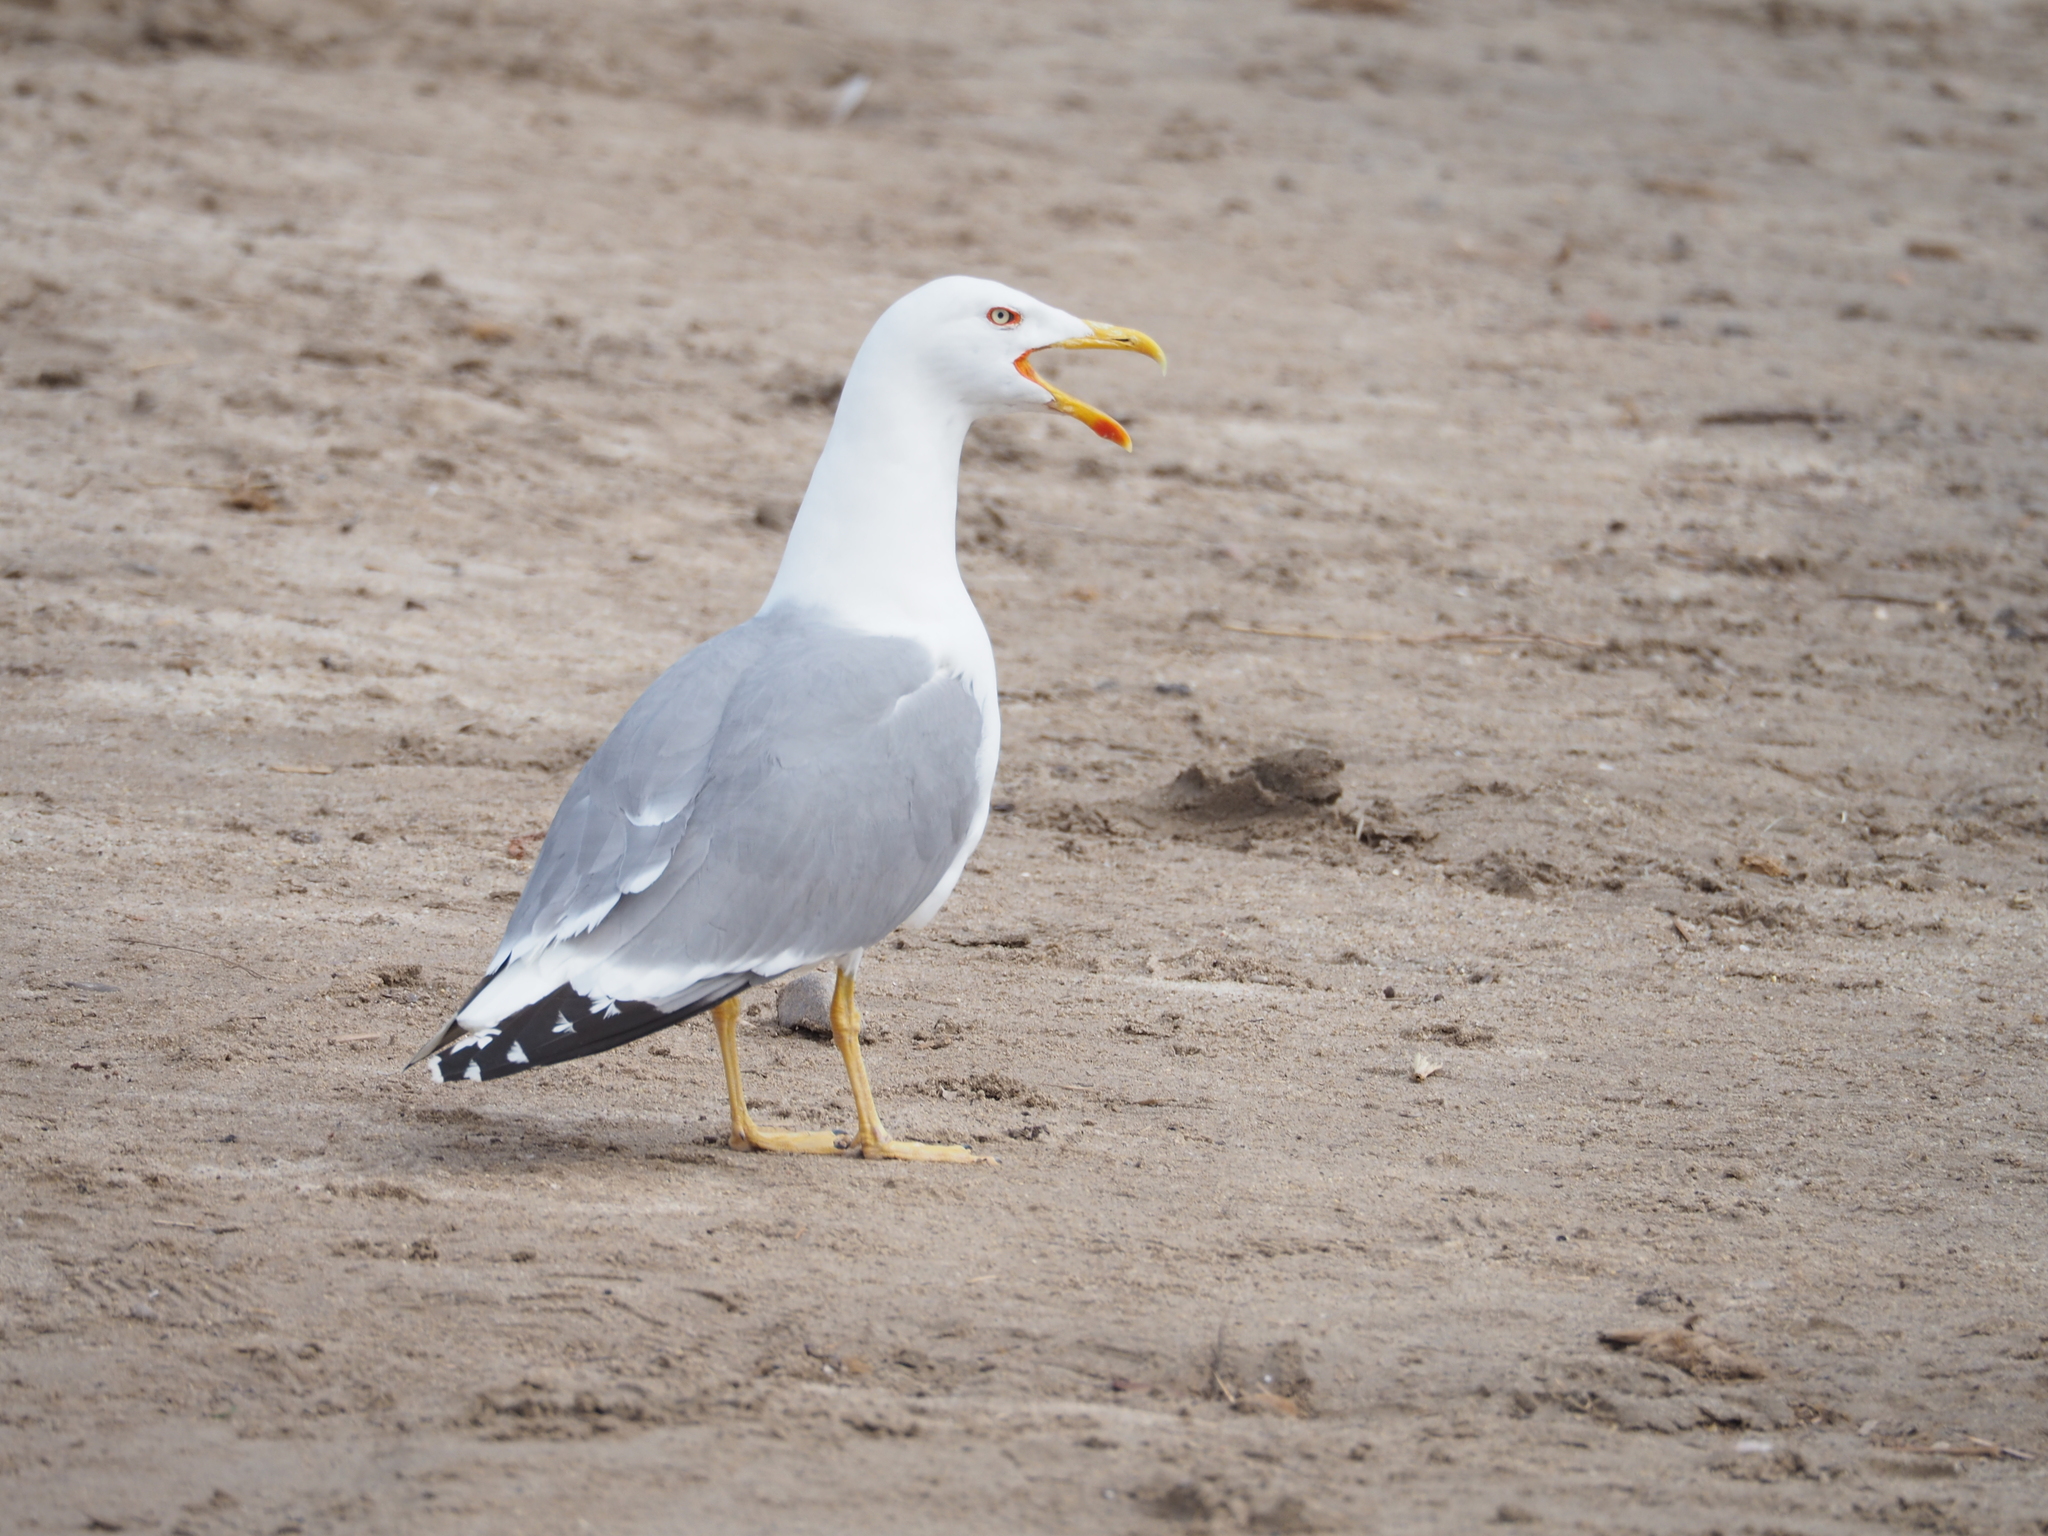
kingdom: Animalia
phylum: Chordata
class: Aves
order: Charadriiformes
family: Laridae
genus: Larus
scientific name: Larus michahellis
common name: Yellow-legged gull
